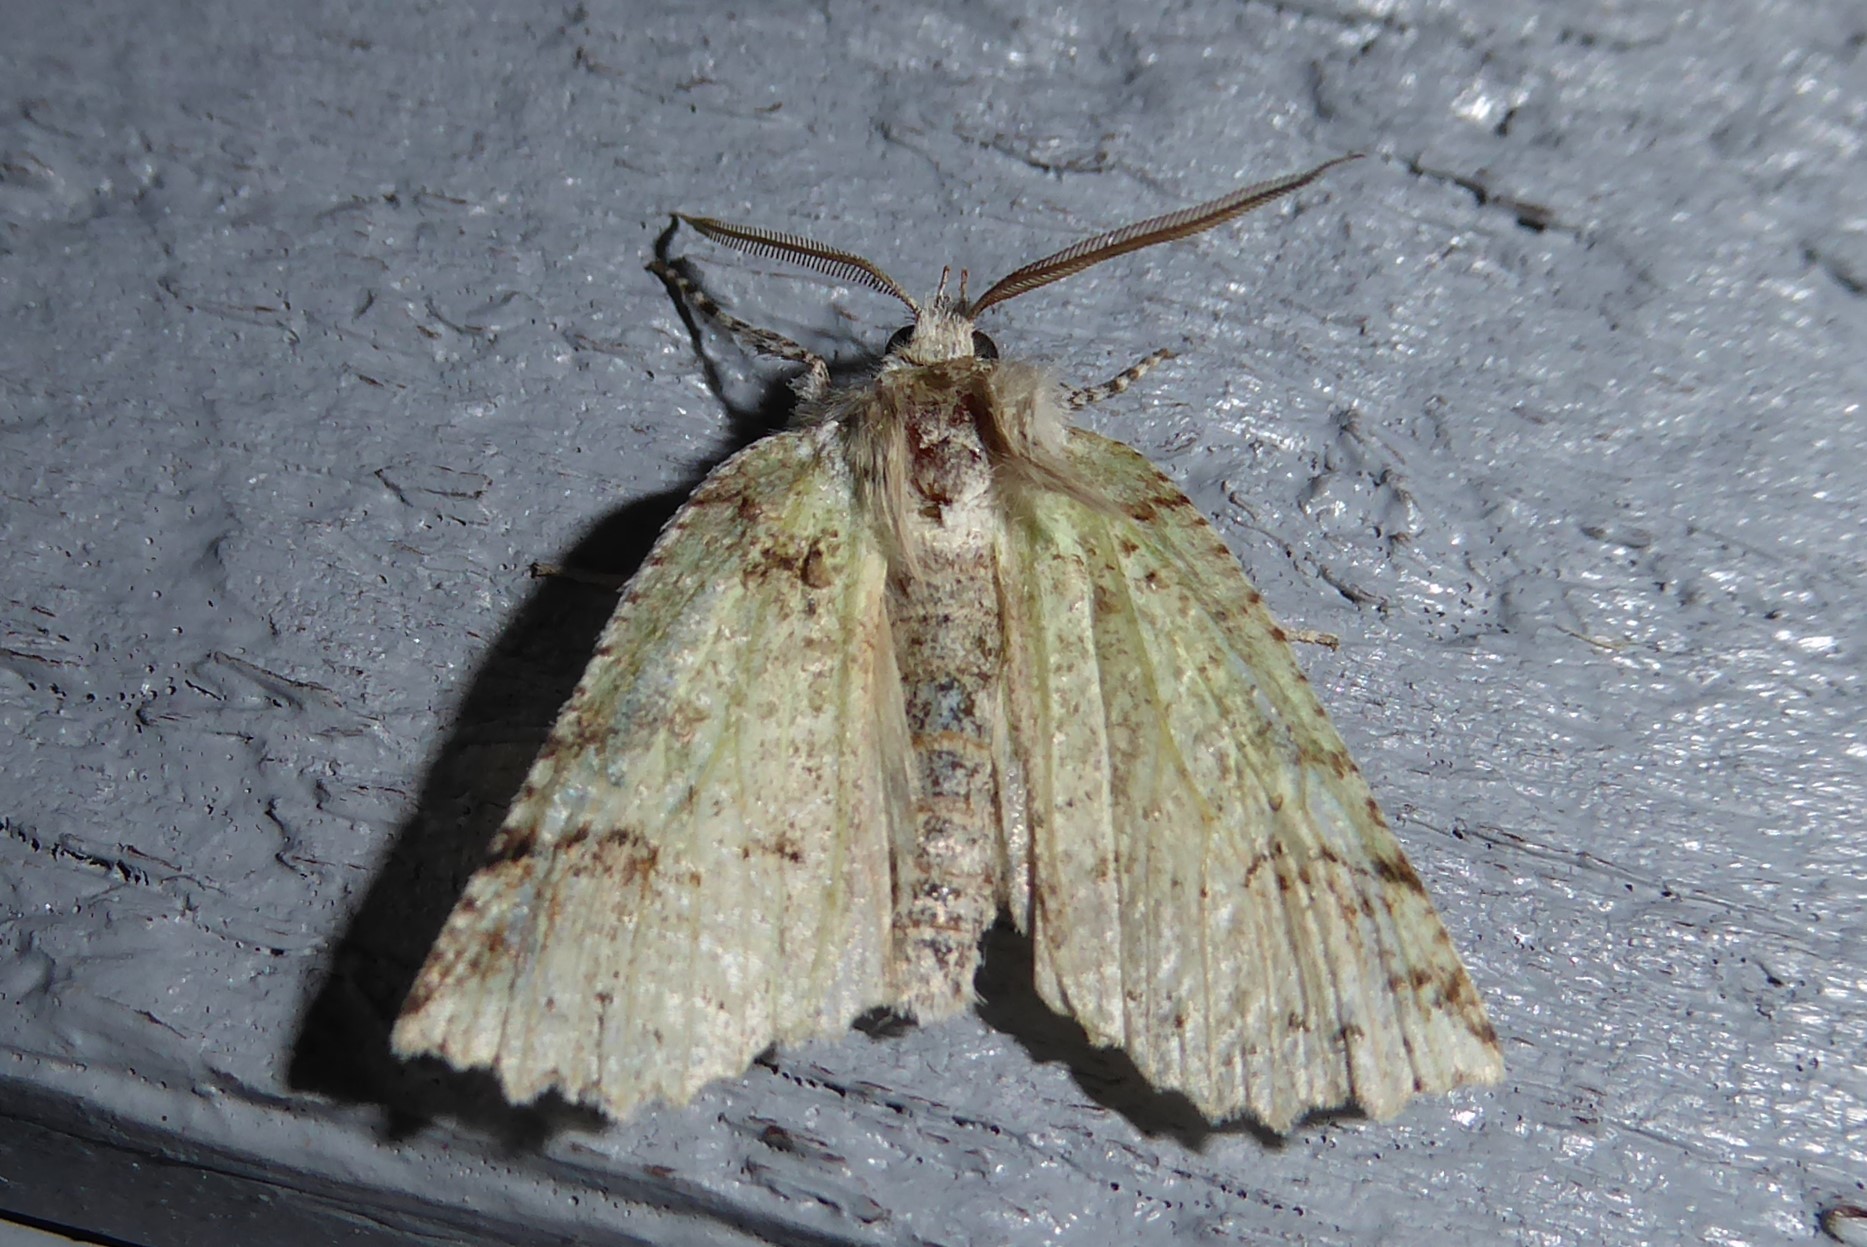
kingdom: Animalia
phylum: Arthropoda
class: Insecta
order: Lepidoptera
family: Geometridae
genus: Declana
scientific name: Declana floccosa
